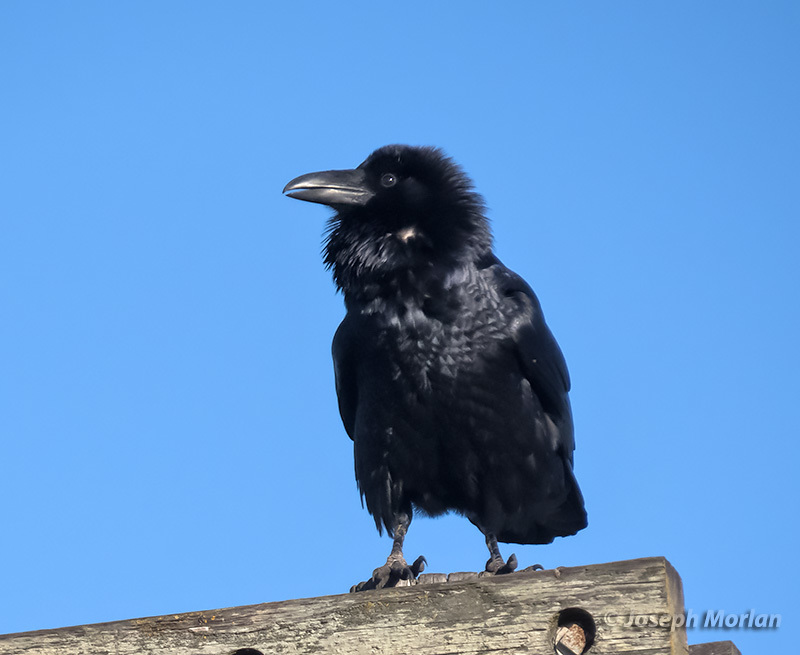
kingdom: Animalia
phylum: Chordata
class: Aves
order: Passeriformes
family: Corvidae
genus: Corvus
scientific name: Corvus corax
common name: Common raven
